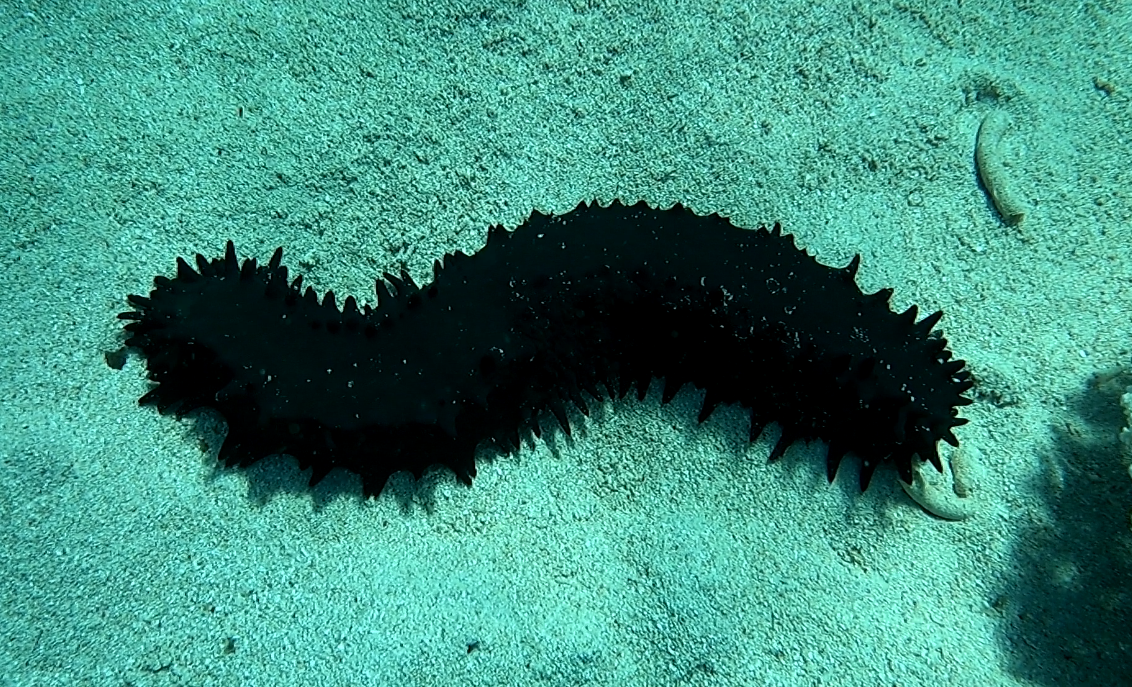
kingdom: Animalia
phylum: Echinodermata
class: Holothuroidea
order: Synallactida
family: Stichopodidae
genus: Stichopus
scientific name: Stichopus chloronotus
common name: Greenfish
